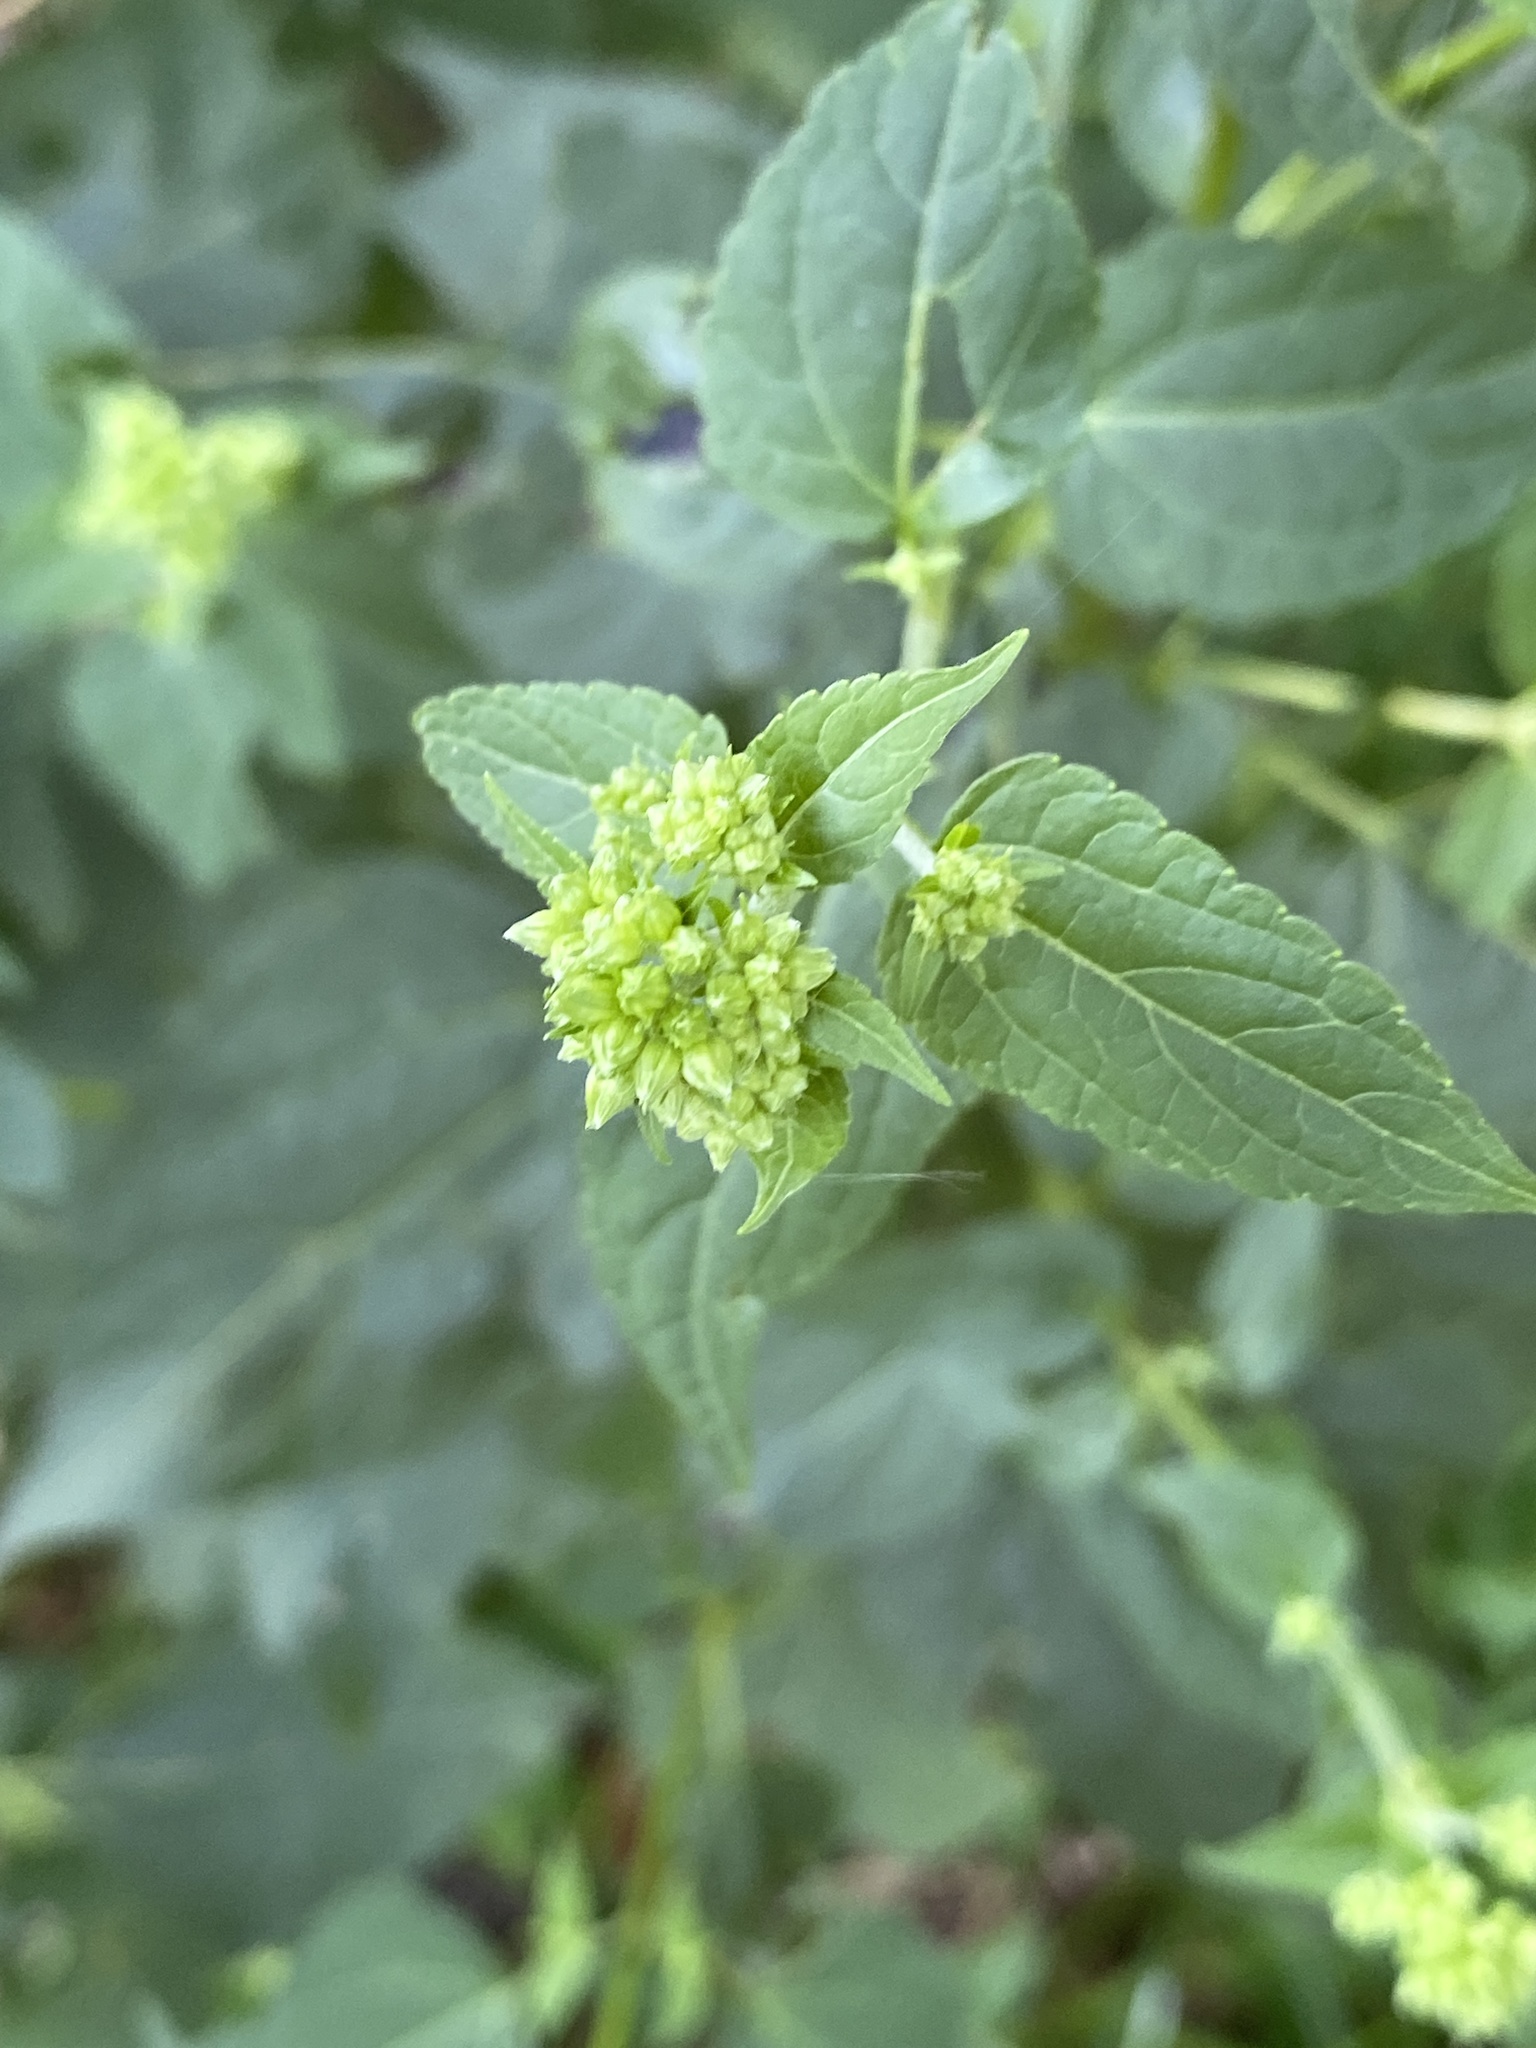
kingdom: Plantae
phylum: Tracheophyta
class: Magnoliopsida
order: Asterales
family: Asteraceae
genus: Ageratina
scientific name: Ageratina altissima
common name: White snakeroot
